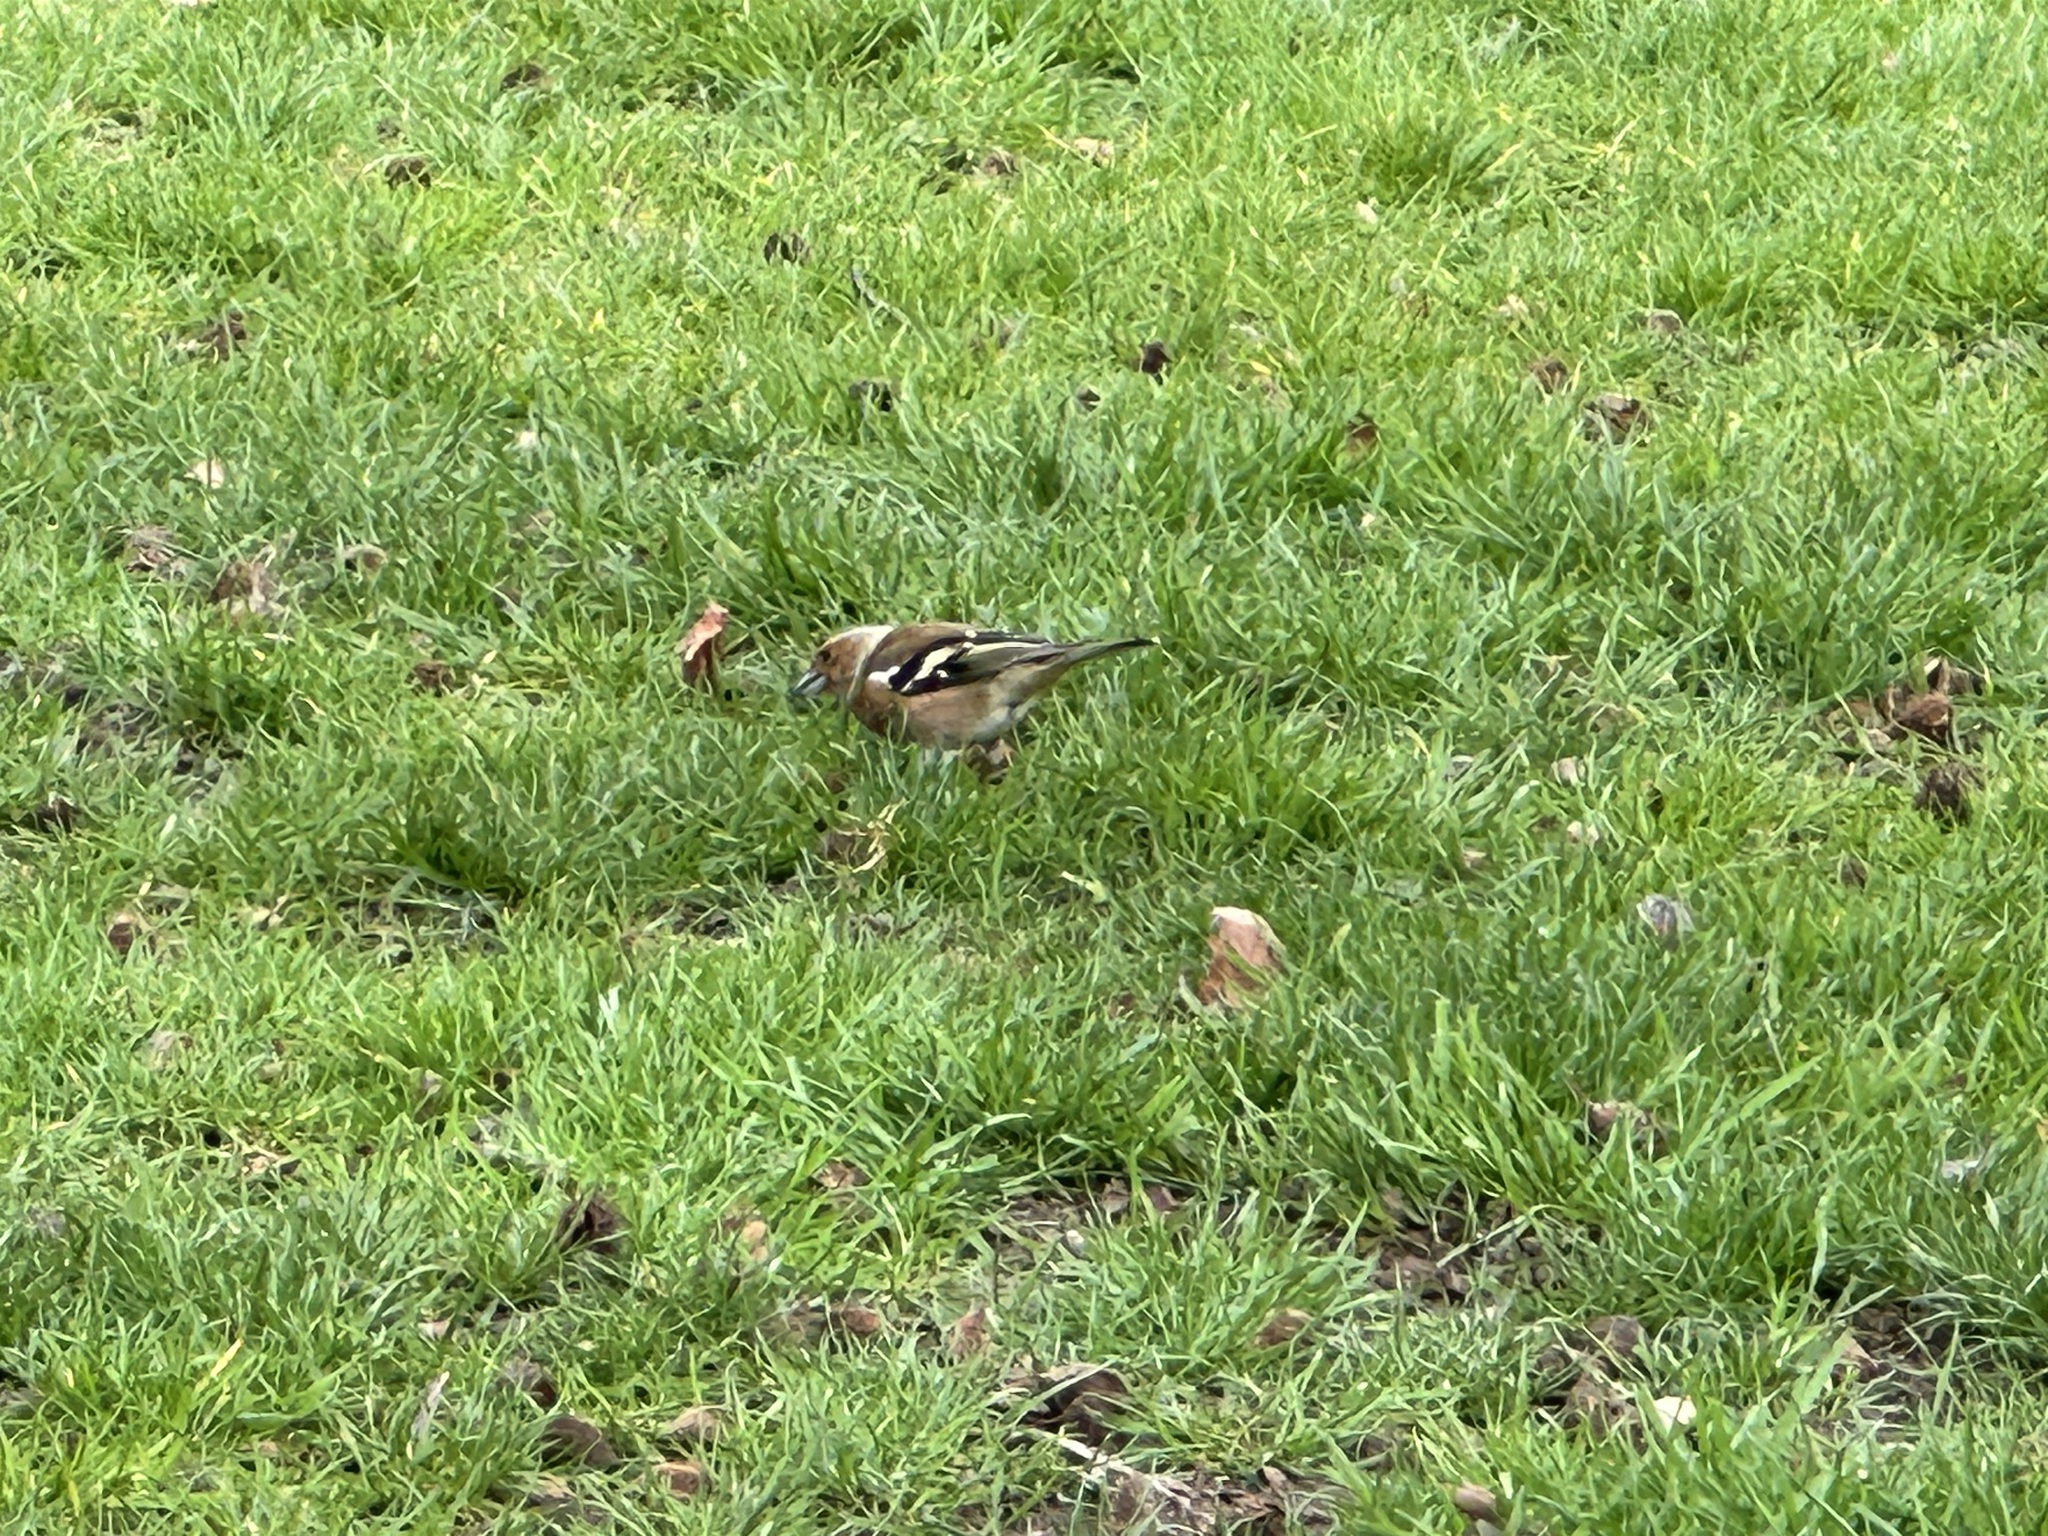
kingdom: Animalia
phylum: Chordata
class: Aves
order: Passeriformes
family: Fringillidae
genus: Fringilla
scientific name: Fringilla coelebs
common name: Common chaffinch
